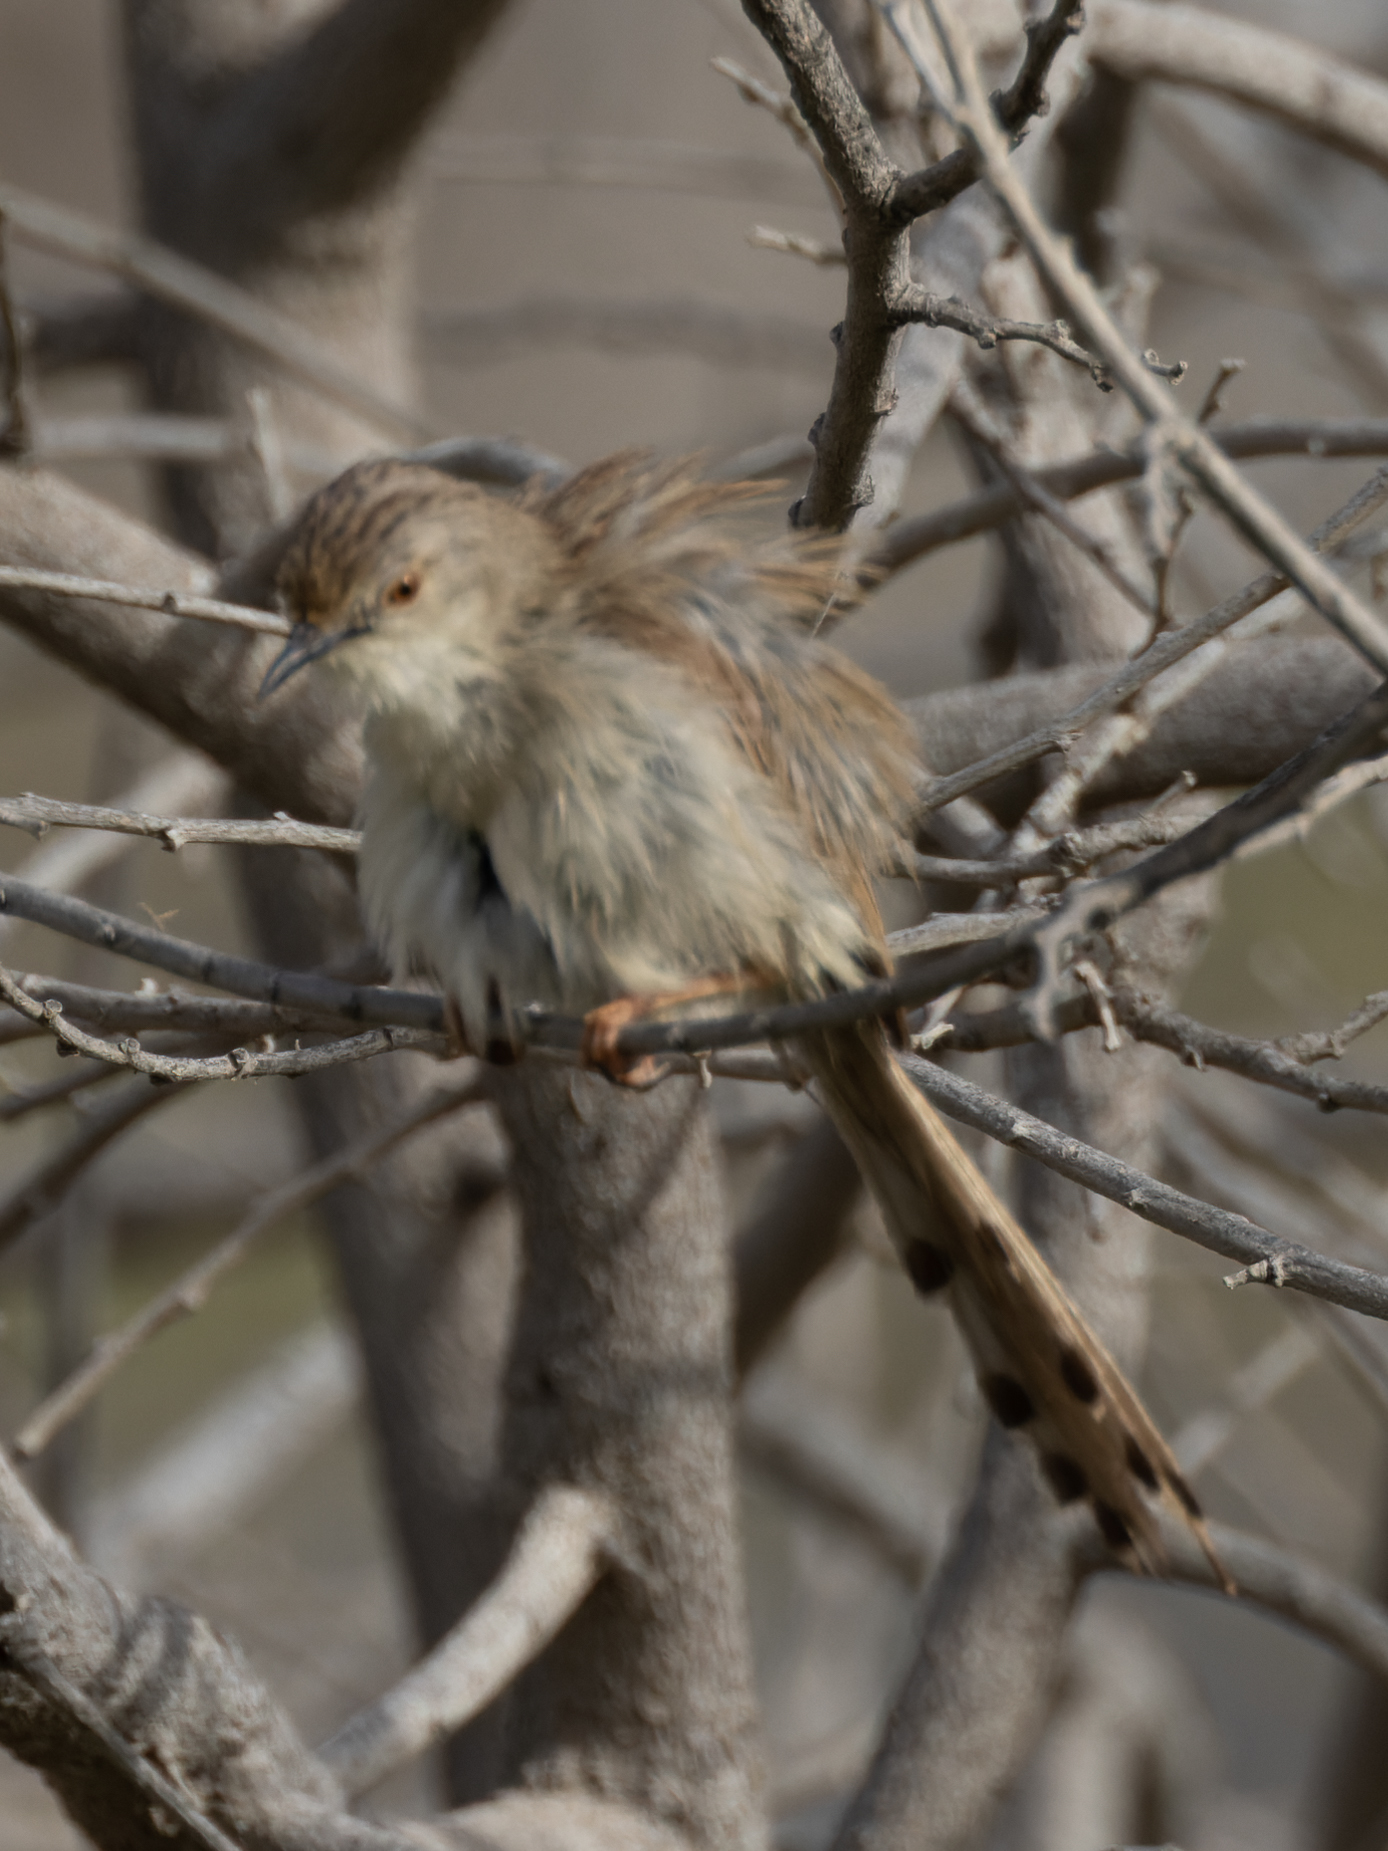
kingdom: Animalia
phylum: Chordata
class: Aves
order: Passeriformes
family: Cisticolidae
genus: Prinia
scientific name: Prinia gracilis
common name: Graceful prinia
